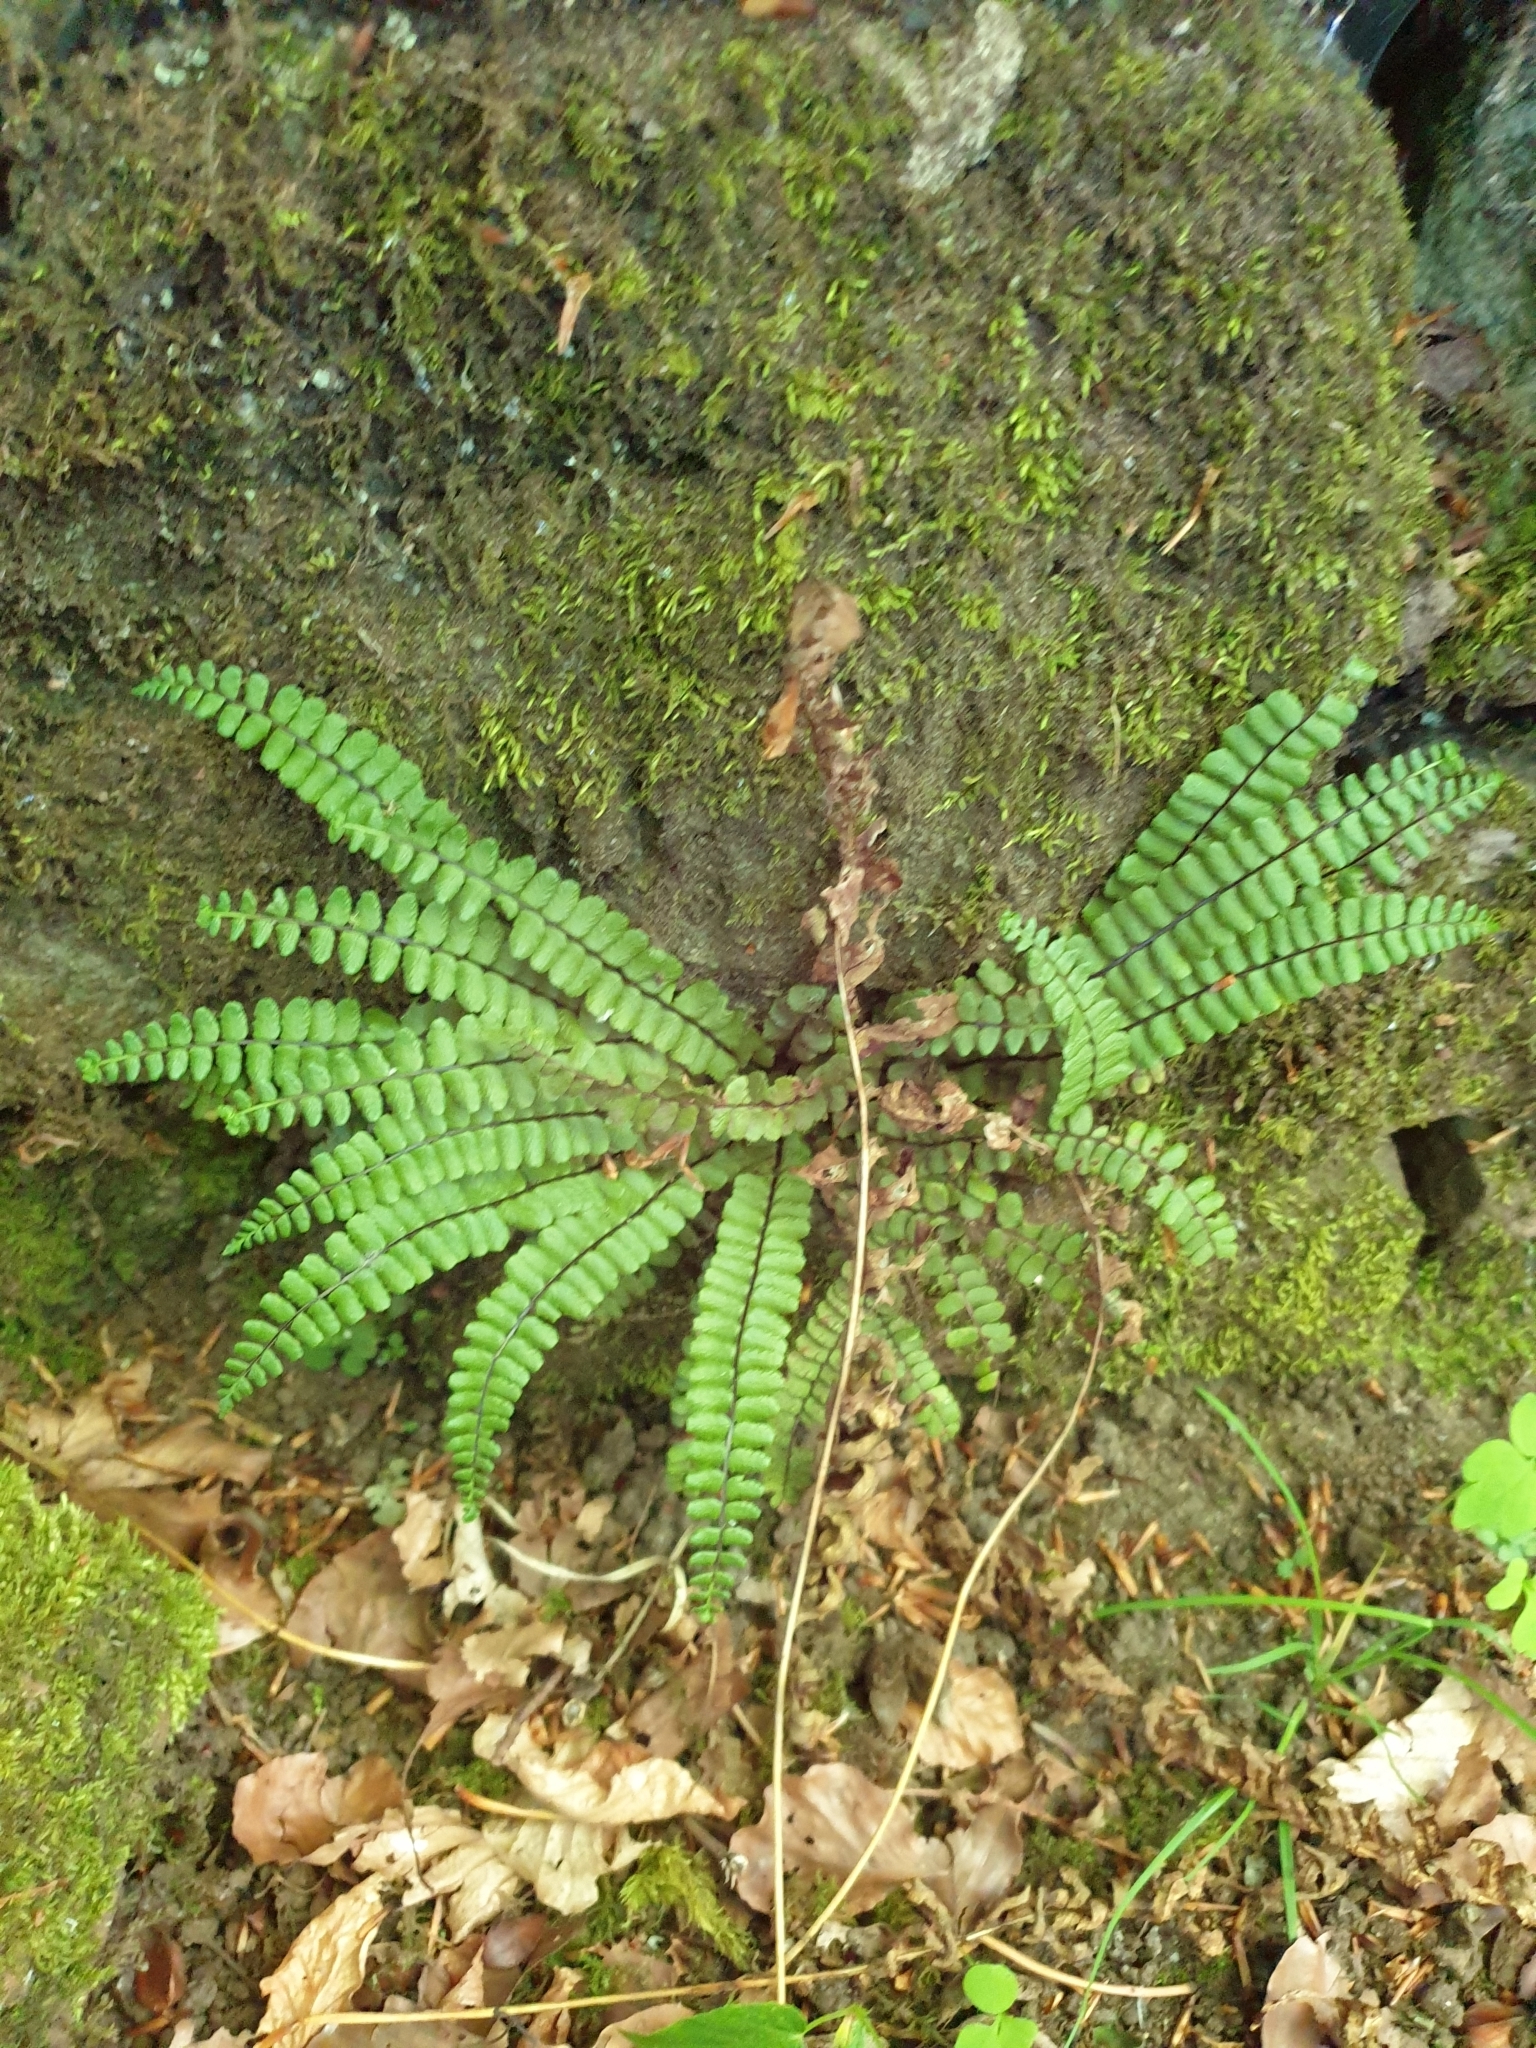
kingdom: Plantae
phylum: Tracheophyta
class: Polypodiopsida
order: Polypodiales
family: Aspleniaceae
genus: Asplenium
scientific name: Asplenium trichomanes
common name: Maidenhair spleenwort
